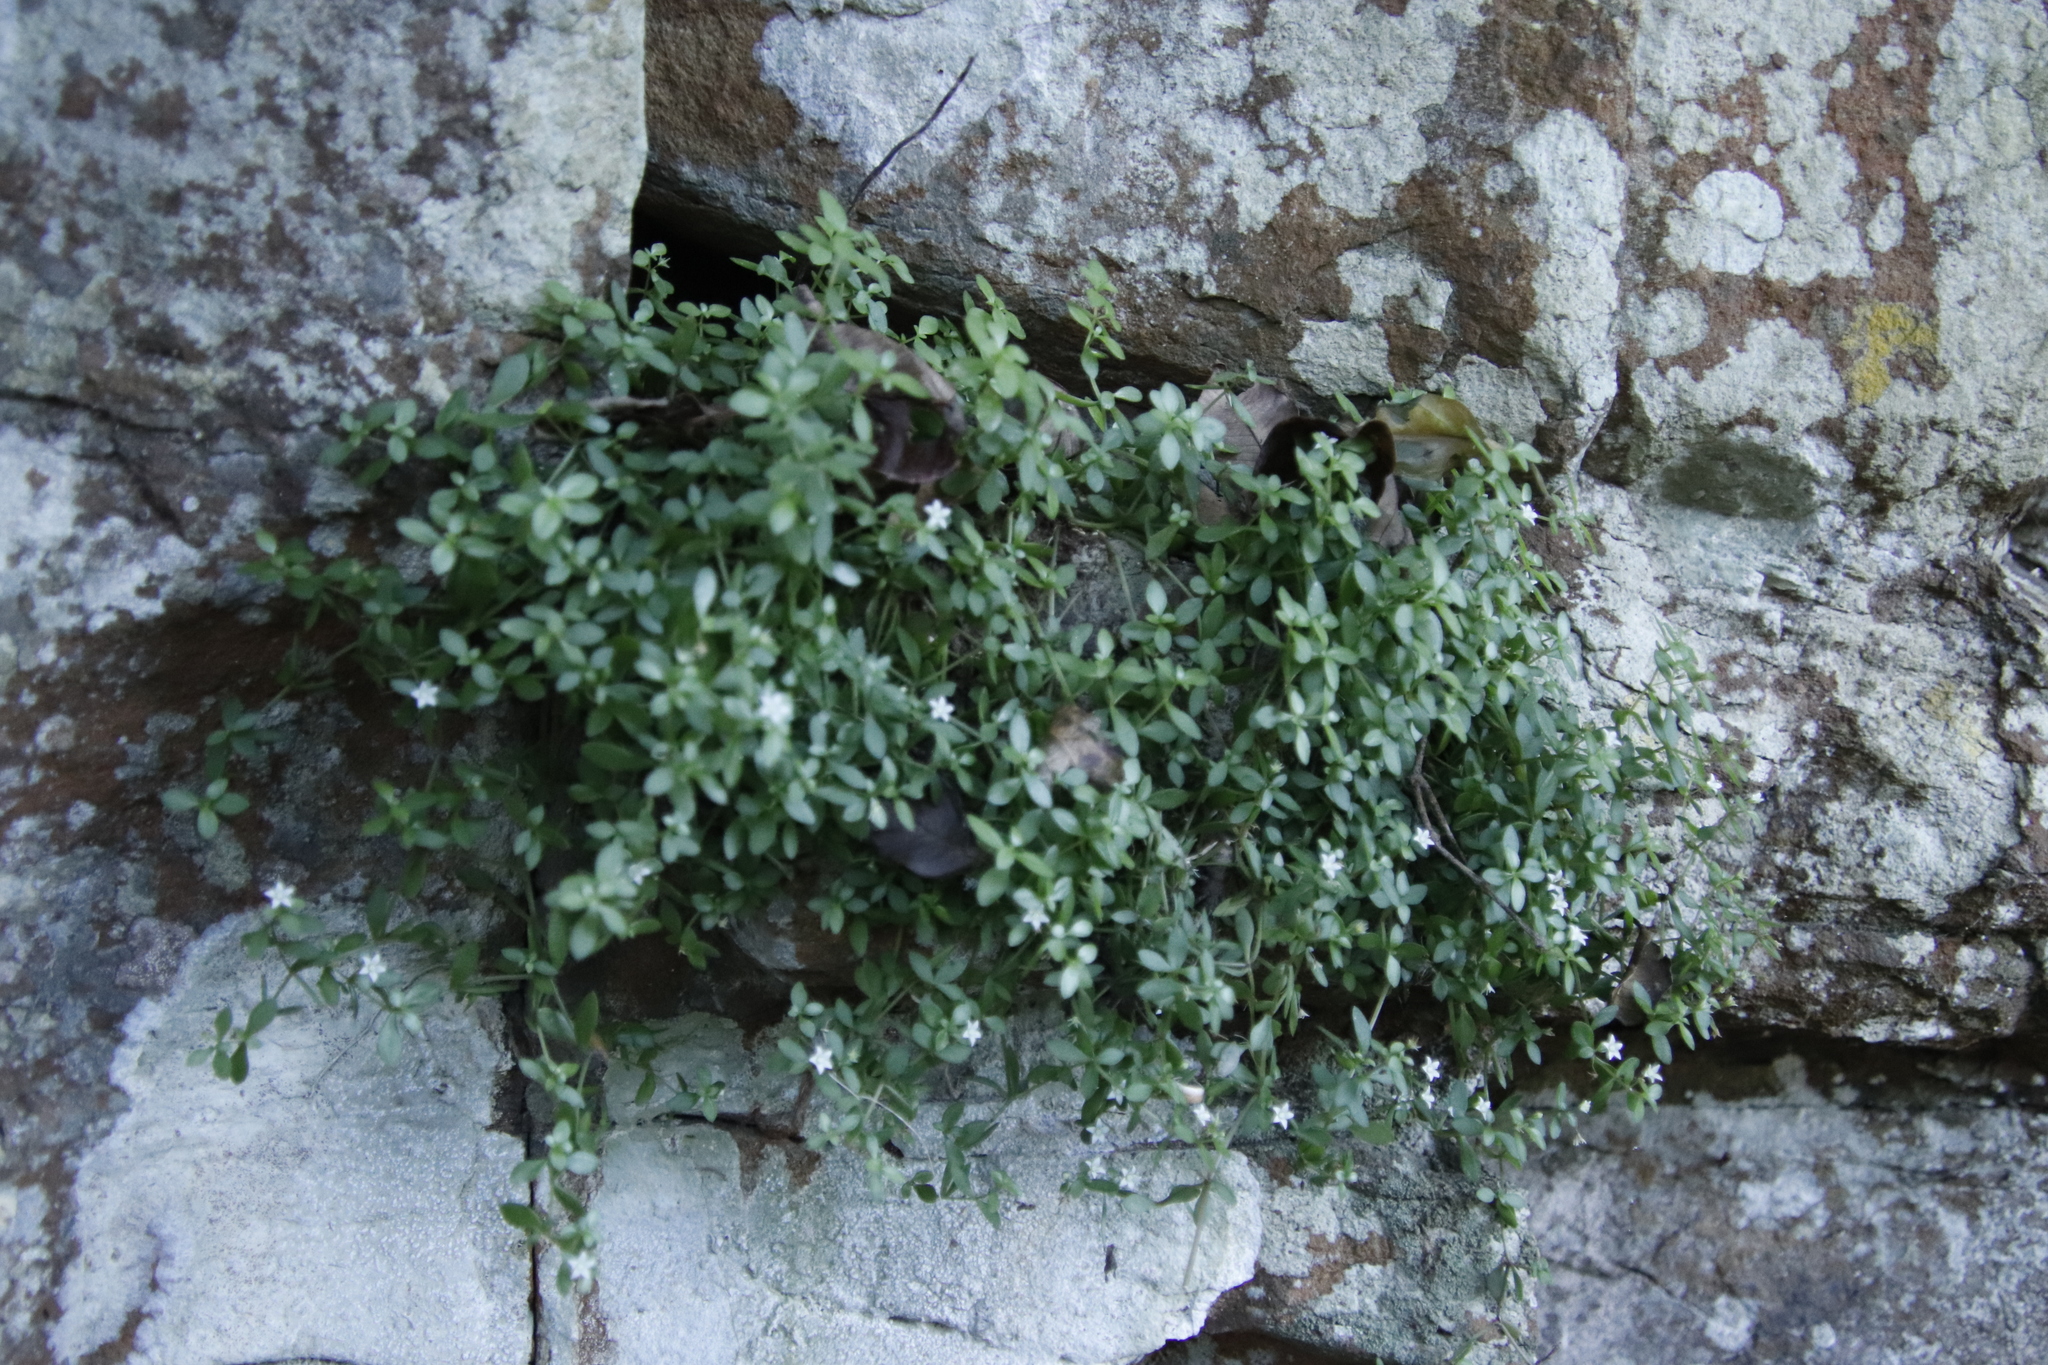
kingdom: Plantae
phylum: Tracheophyta
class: Magnoliopsida
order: Saxifragales
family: Crassulaceae
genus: Crassula
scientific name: Crassula expansa
